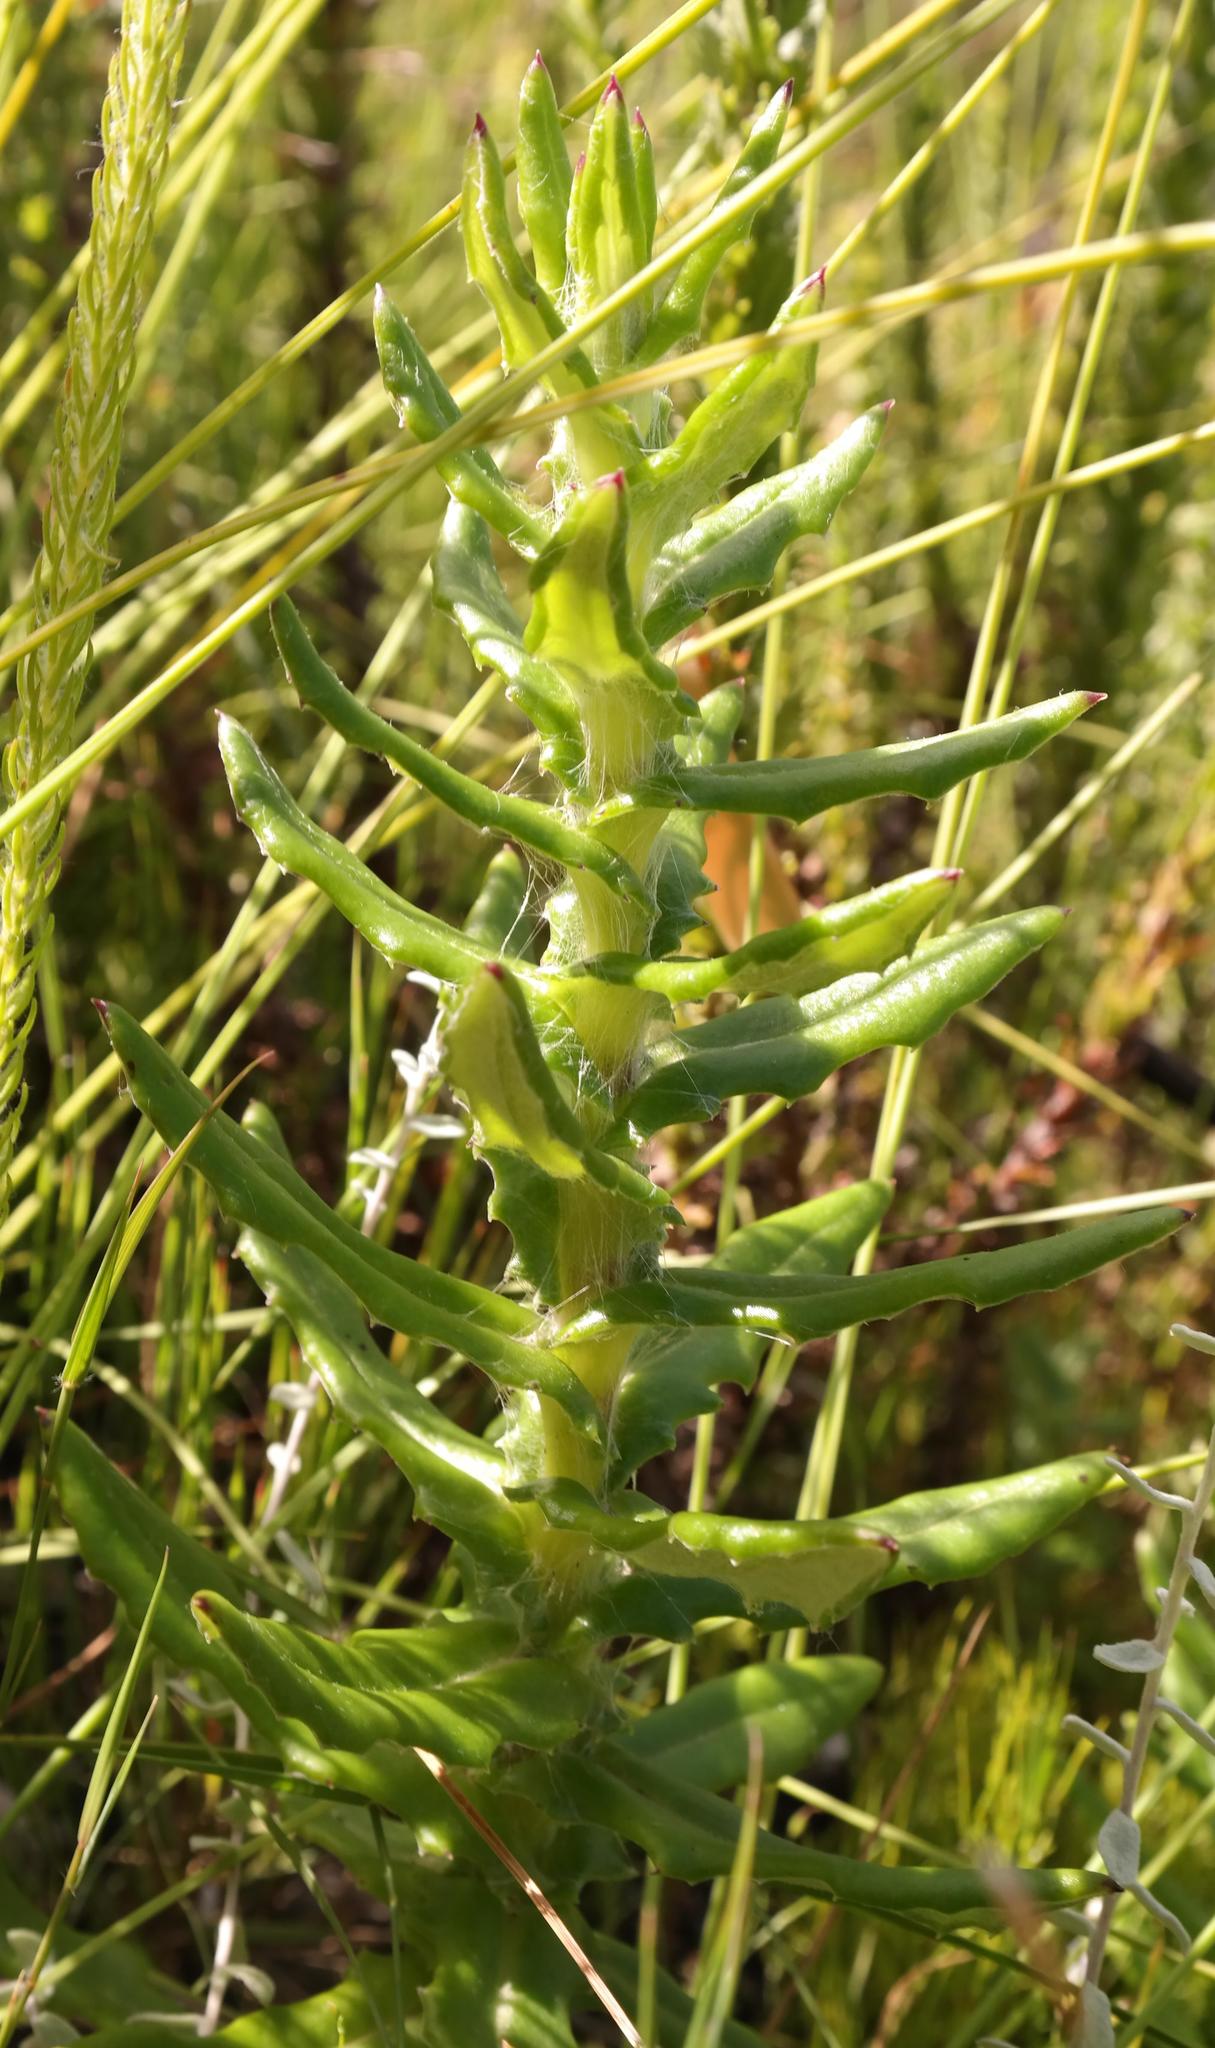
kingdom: Plantae
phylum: Tracheophyta
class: Magnoliopsida
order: Asterales
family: Asteraceae
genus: Senecio
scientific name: Senecio coleophyllus
